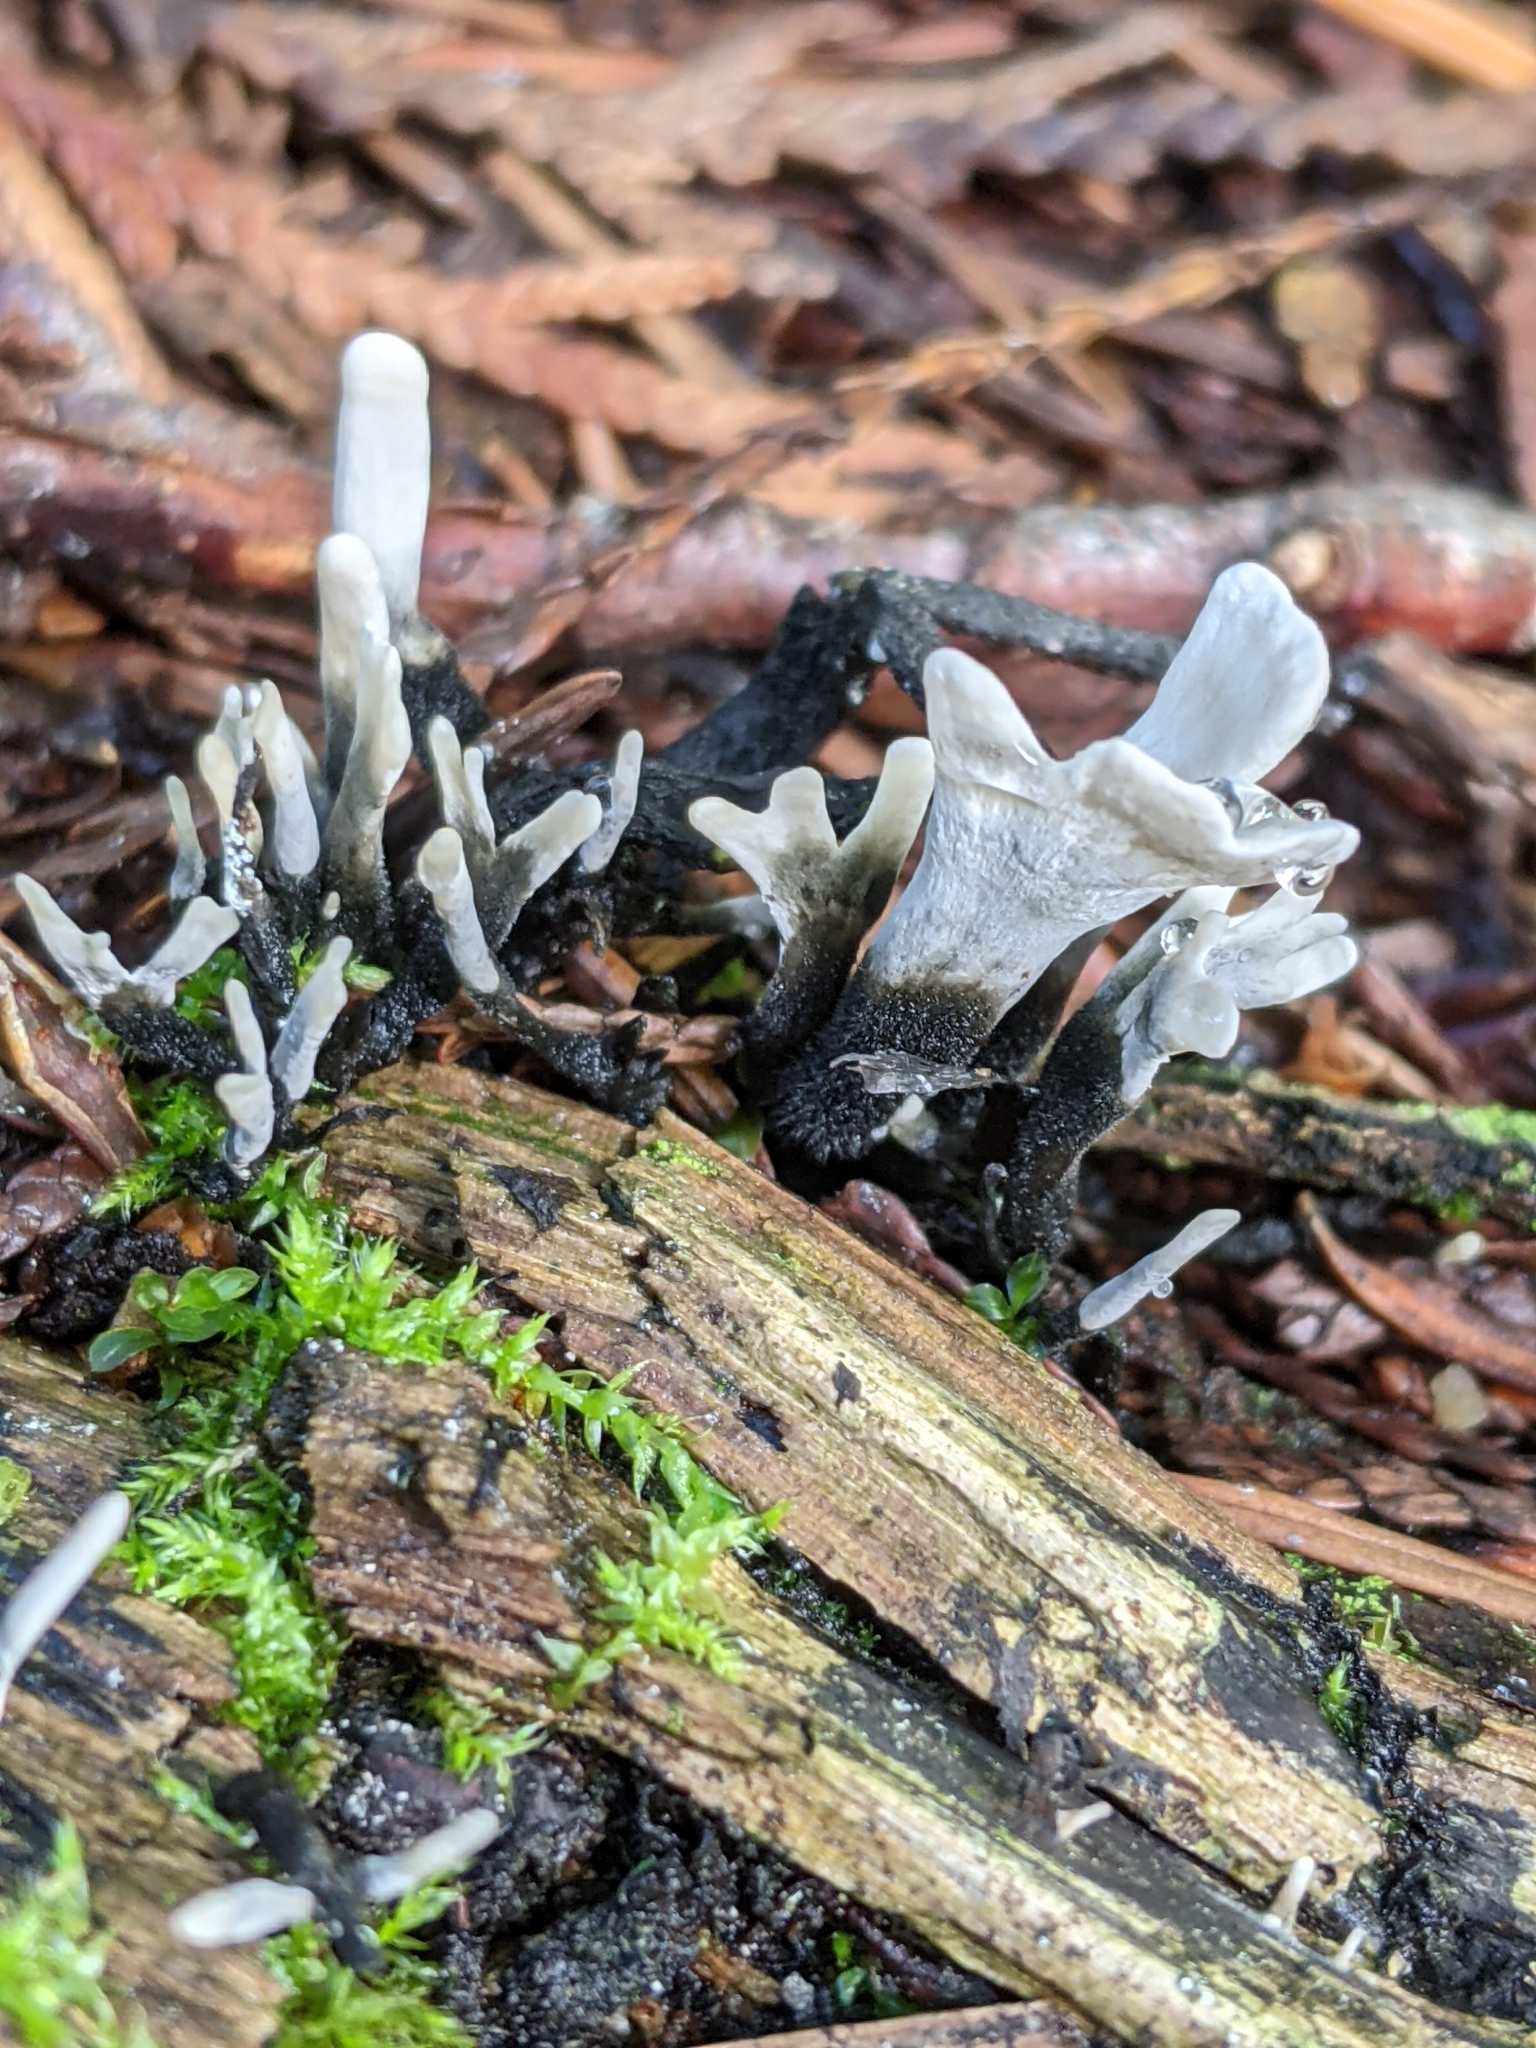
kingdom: Fungi
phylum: Ascomycota
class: Sordariomycetes
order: Xylariales
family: Xylariaceae
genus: Xylaria
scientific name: Xylaria hypoxylon
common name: Candle-snuff fungus
